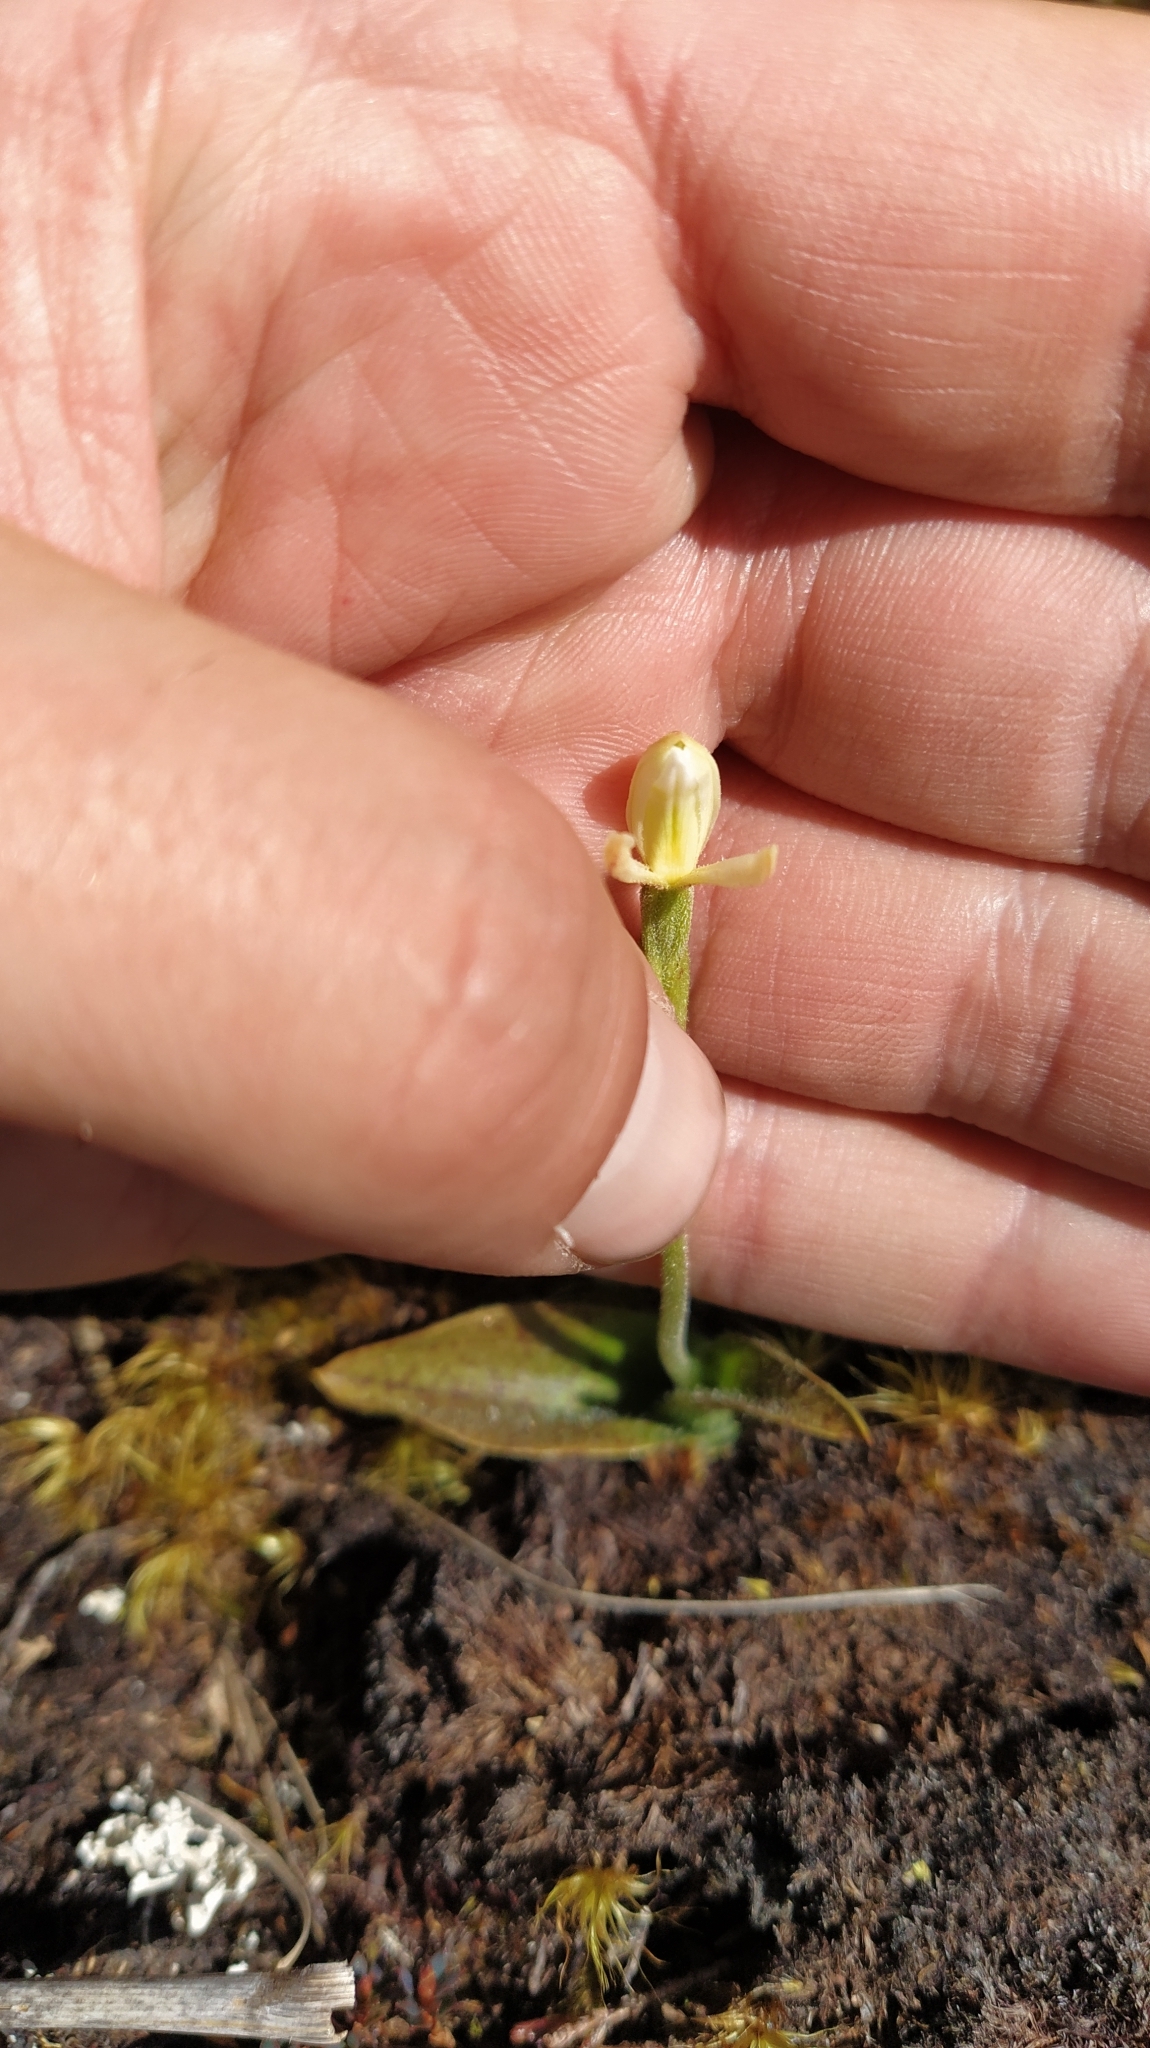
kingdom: Plantae
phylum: Tracheophyta
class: Liliopsida
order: Asparagales
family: Orchidaceae
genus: Aporostylis
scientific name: Aporostylis bifolia
